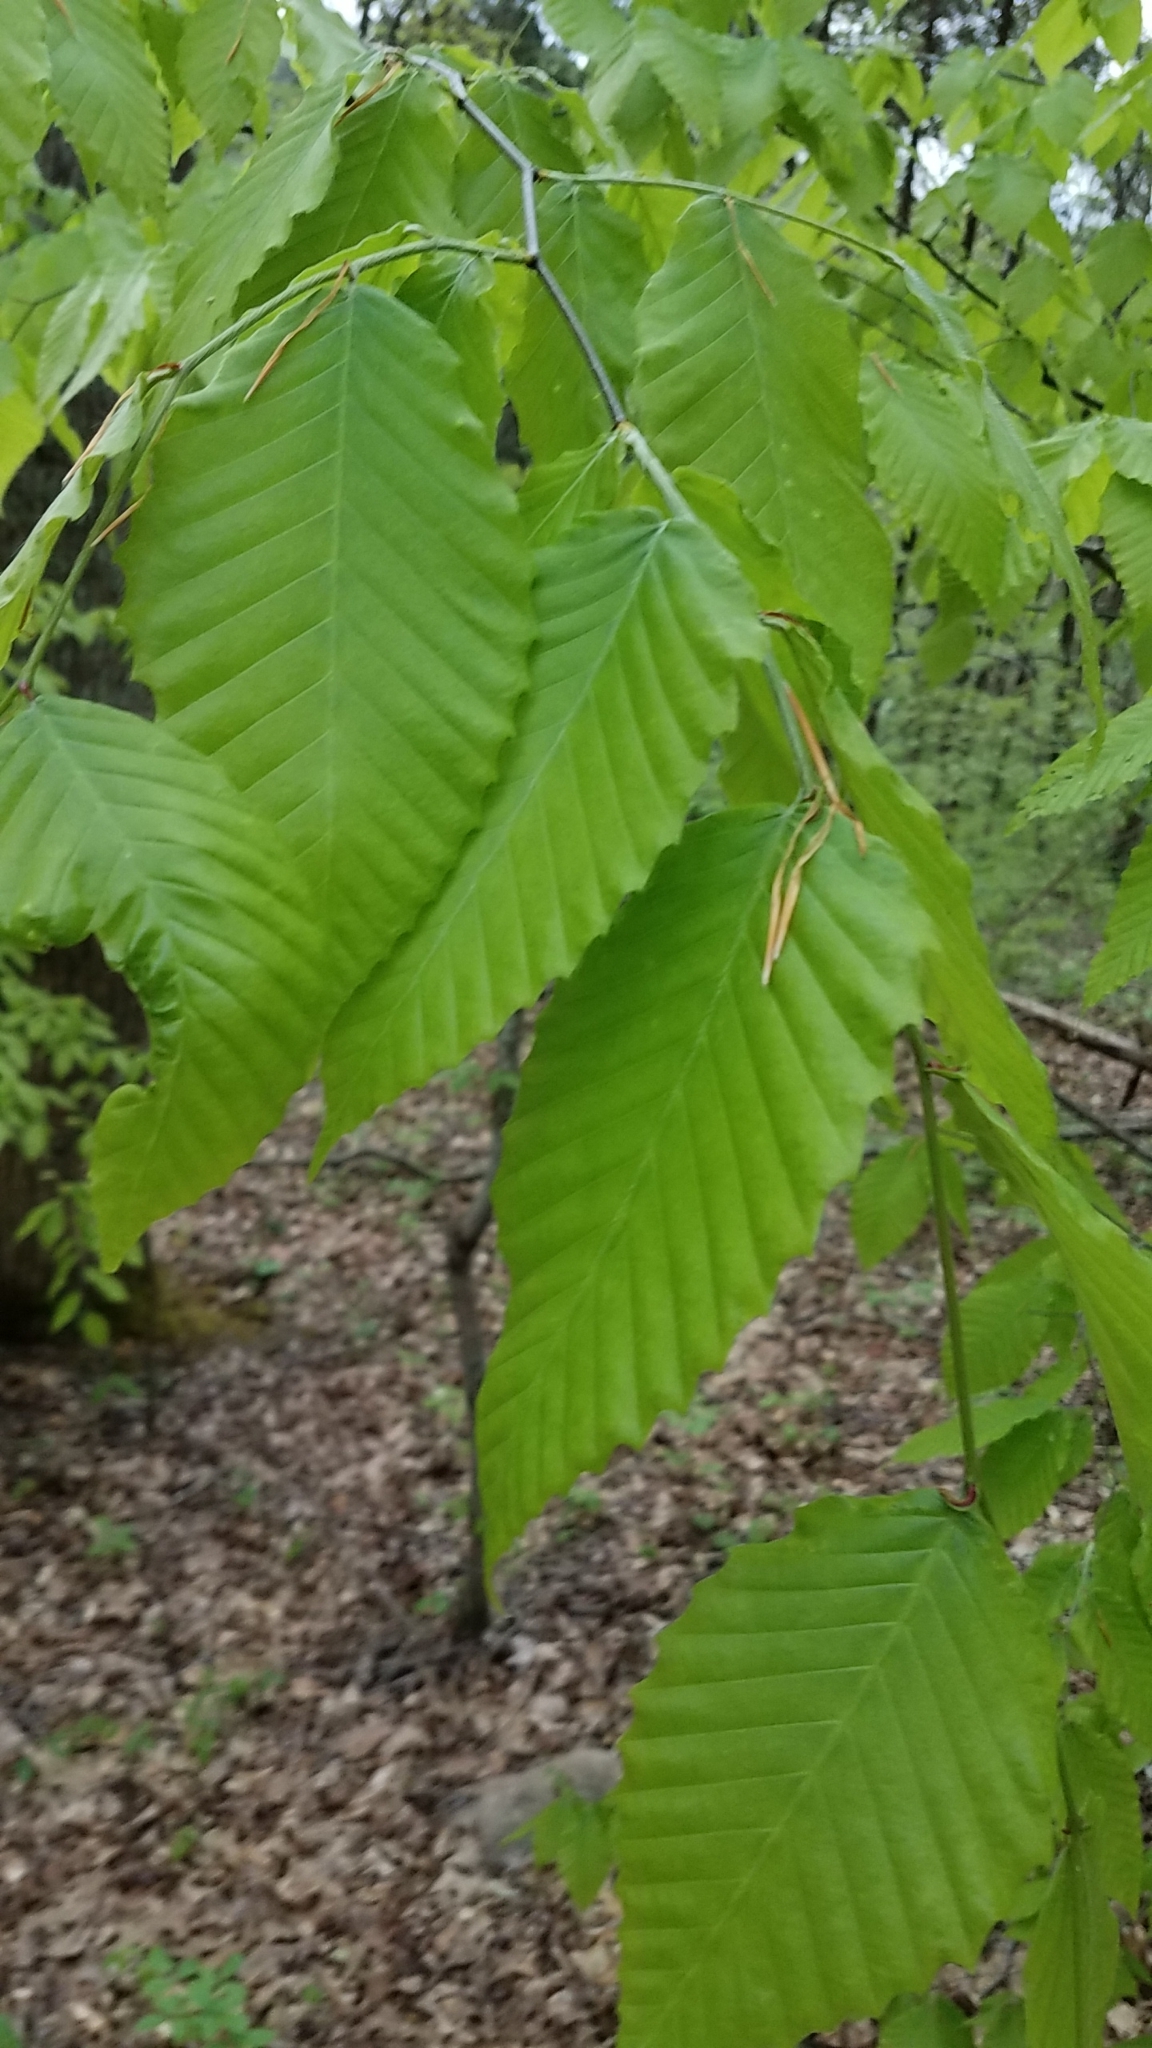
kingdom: Plantae
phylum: Tracheophyta
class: Magnoliopsida
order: Fagales
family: Fagaceae
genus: Fagus
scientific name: Fagus grandifolia
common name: American beech
